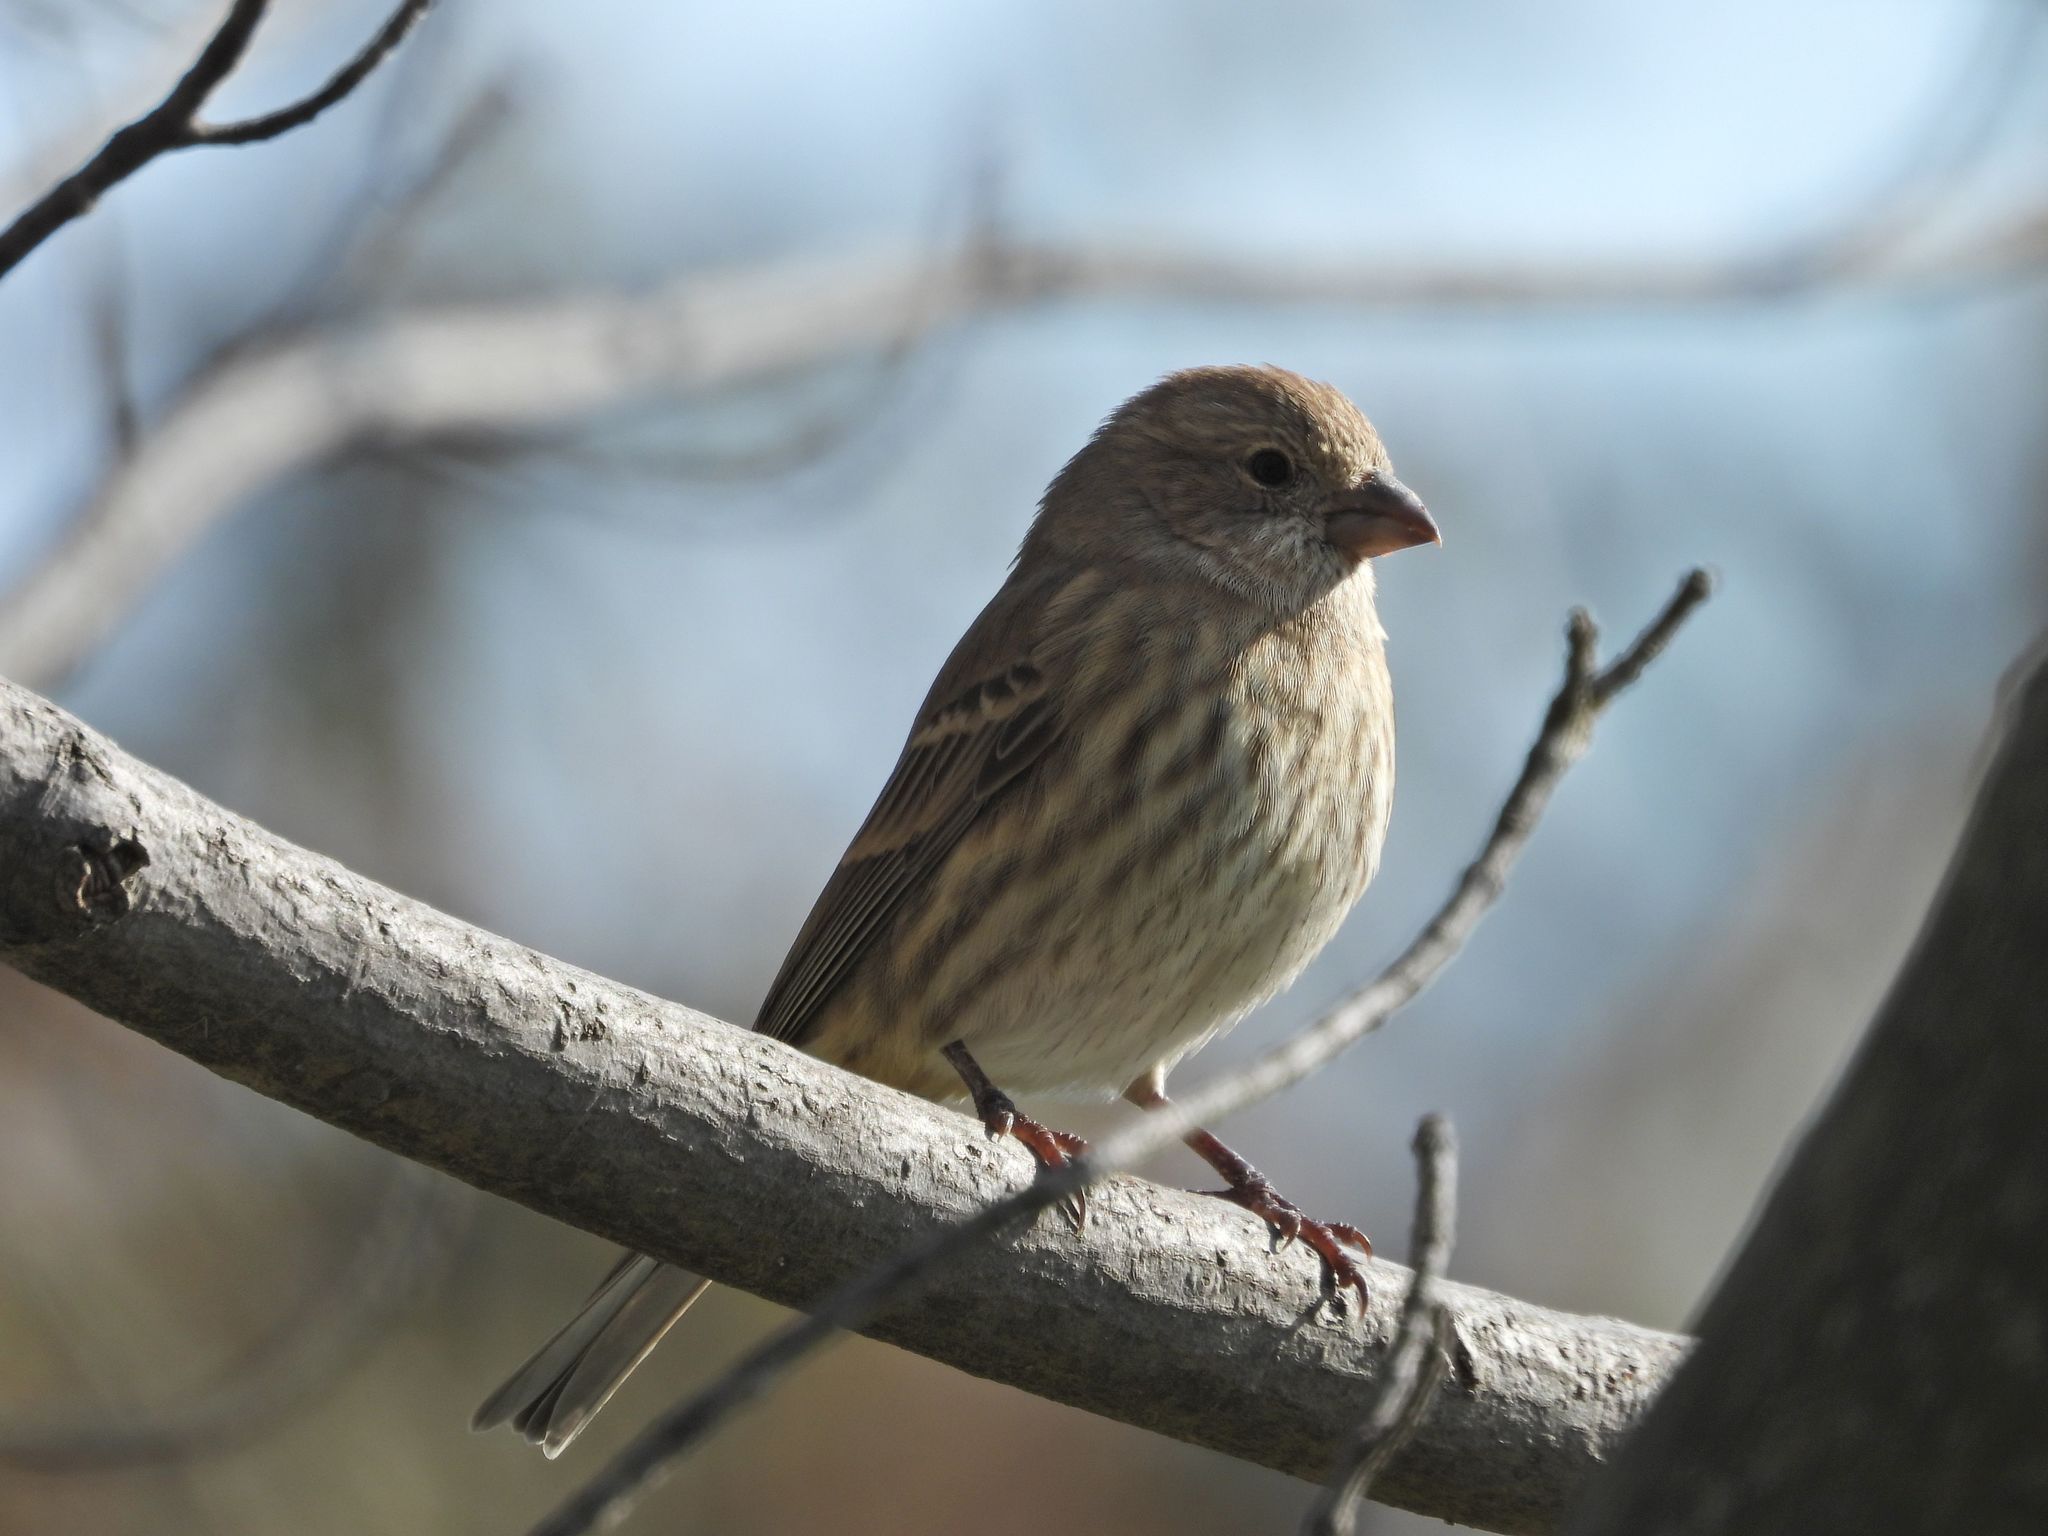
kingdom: Animalia
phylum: Chordata
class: Aves
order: Passeriformes
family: Fringillidae
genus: Haemorhous
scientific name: Haemorhous mexicanus
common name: House finch
